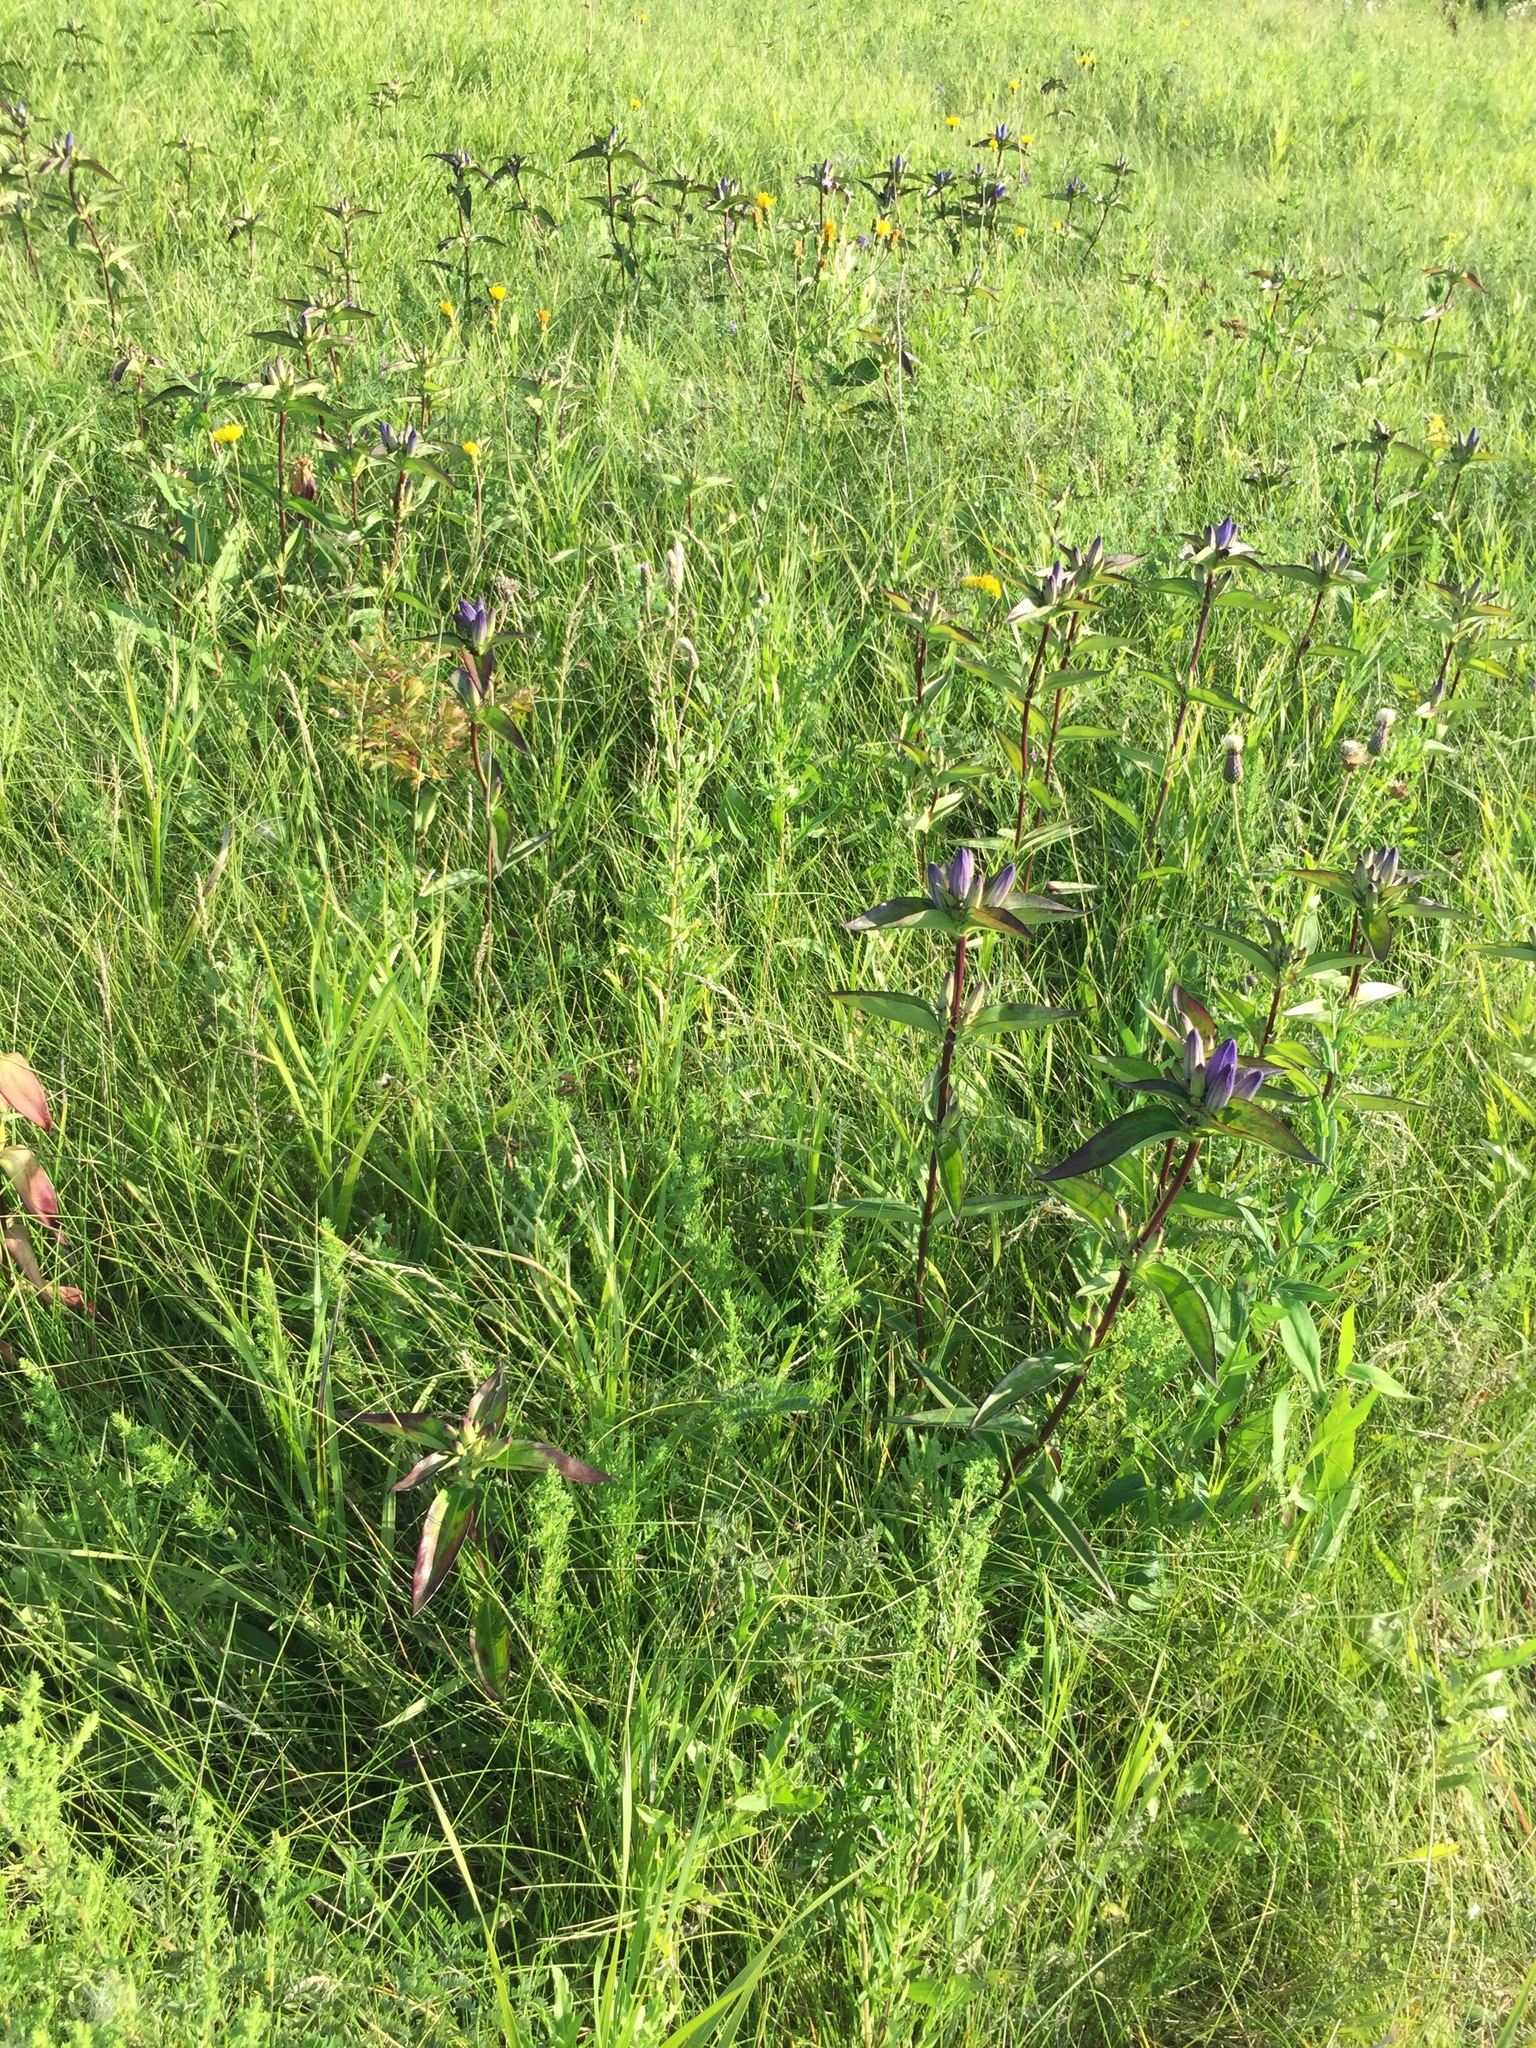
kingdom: Plantae
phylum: Tracheophyta
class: Magnoliopsida
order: Gentianales
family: Gentianaceae
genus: Gentiana
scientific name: Gentiana andrewsii
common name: Bottle gentian
